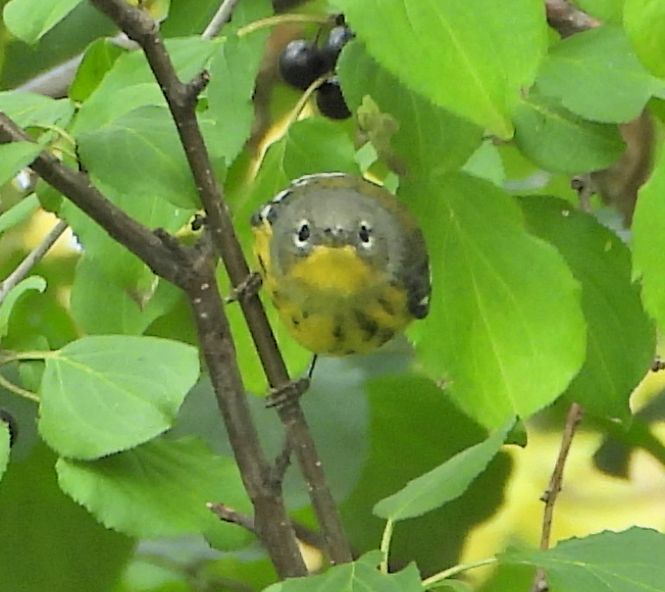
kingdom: Animalia
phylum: Chordata
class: Aves
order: Passeriformes
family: Parulidae
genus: Setophaga
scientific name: Setophaga magnolia
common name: Magnolia warbler
